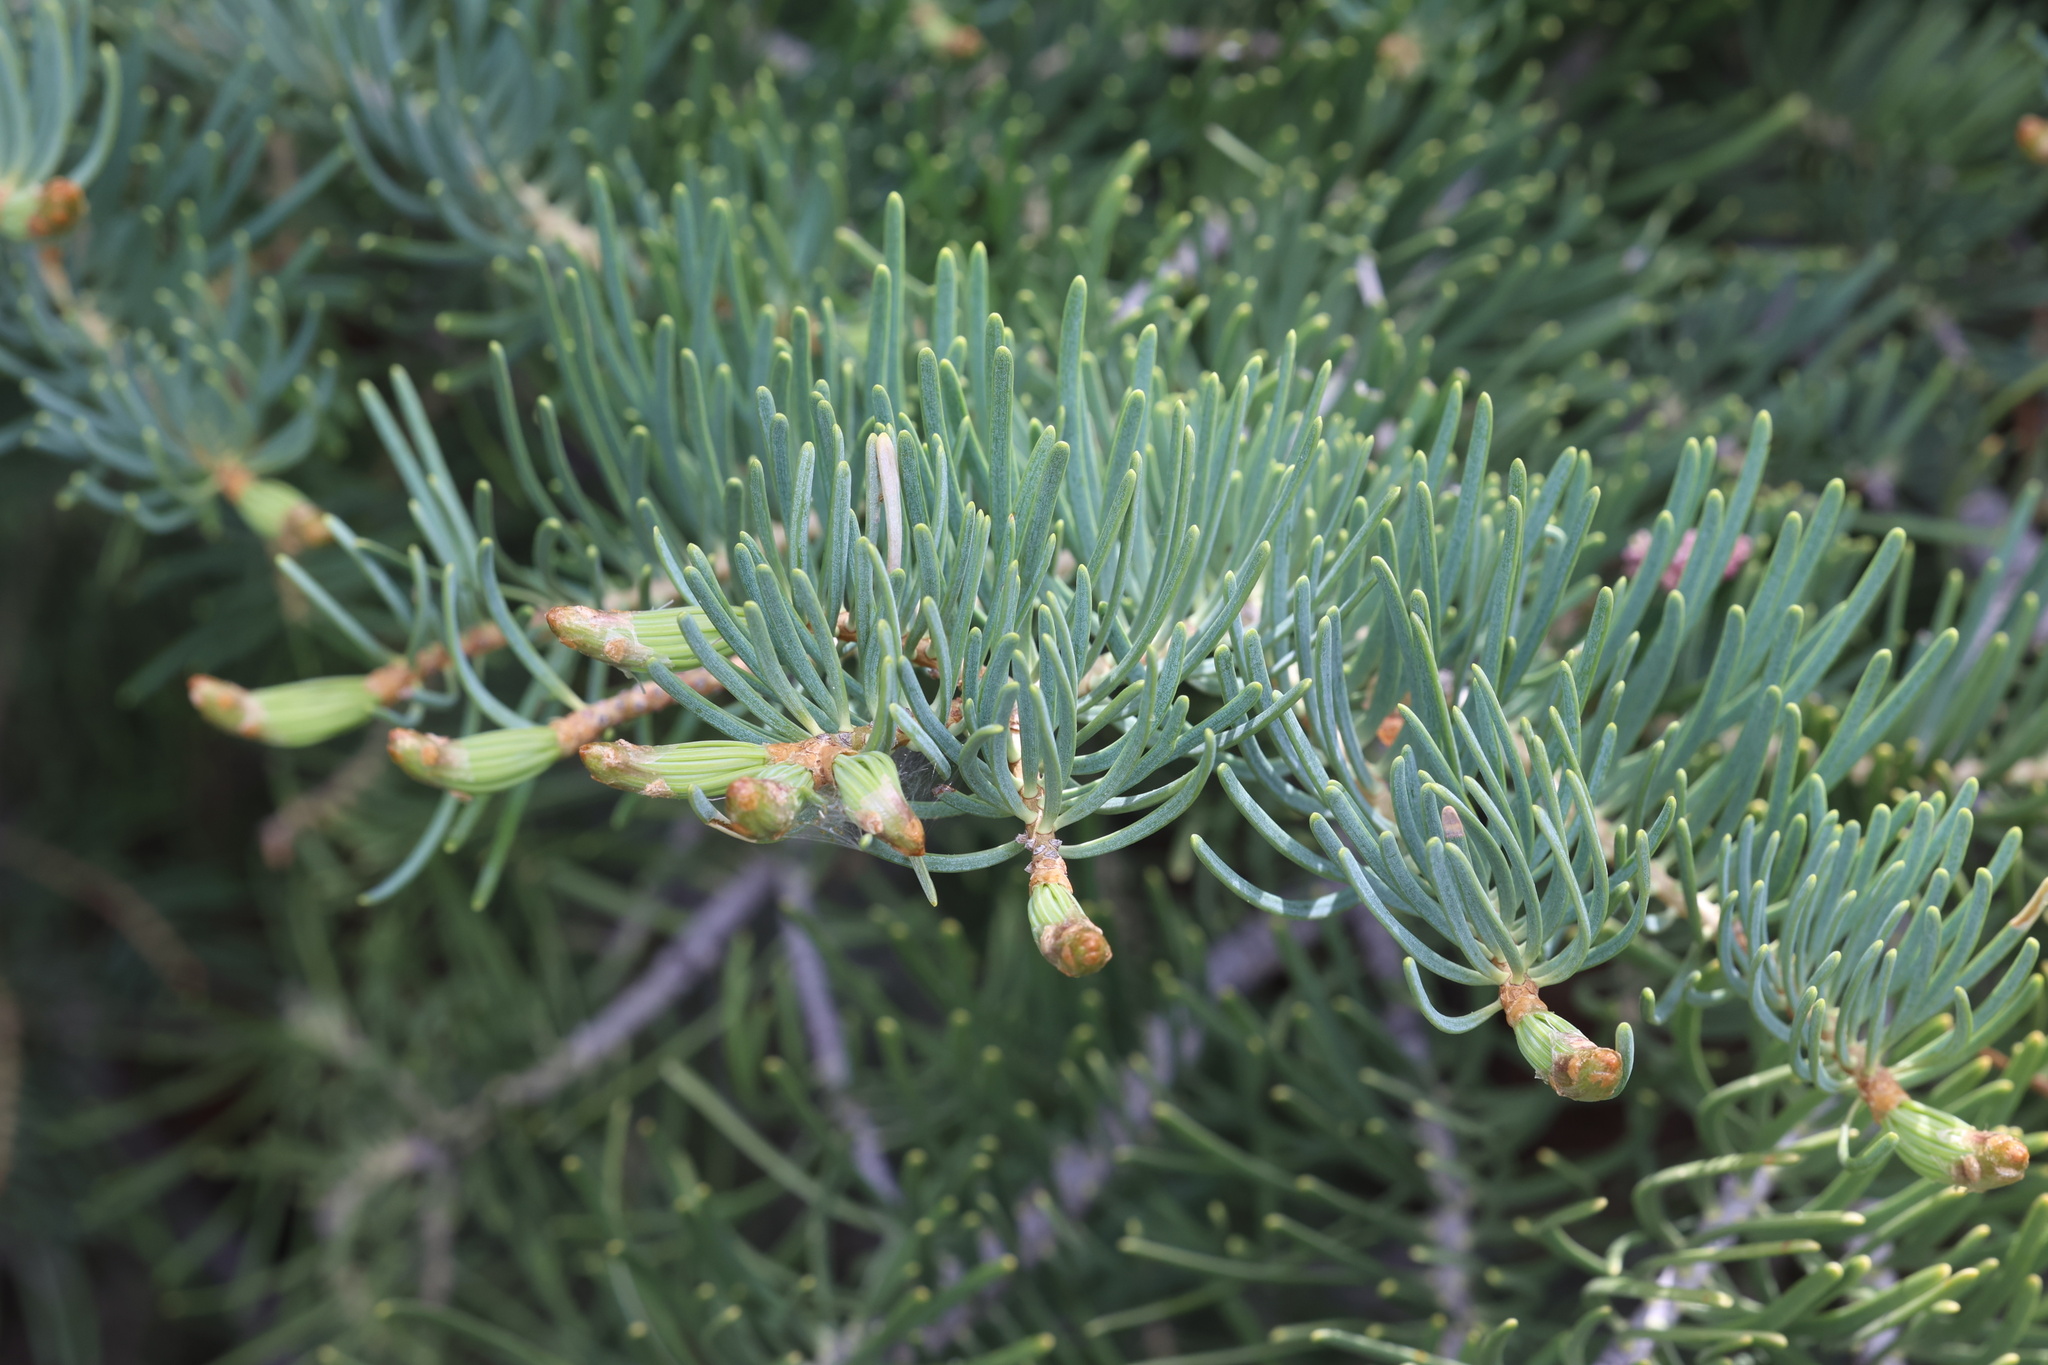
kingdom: Plantae
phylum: Tracheophyta
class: Pinopsida
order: Pinales
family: Pinaceae
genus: Abies
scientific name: Abies concolor
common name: Colorado fir
